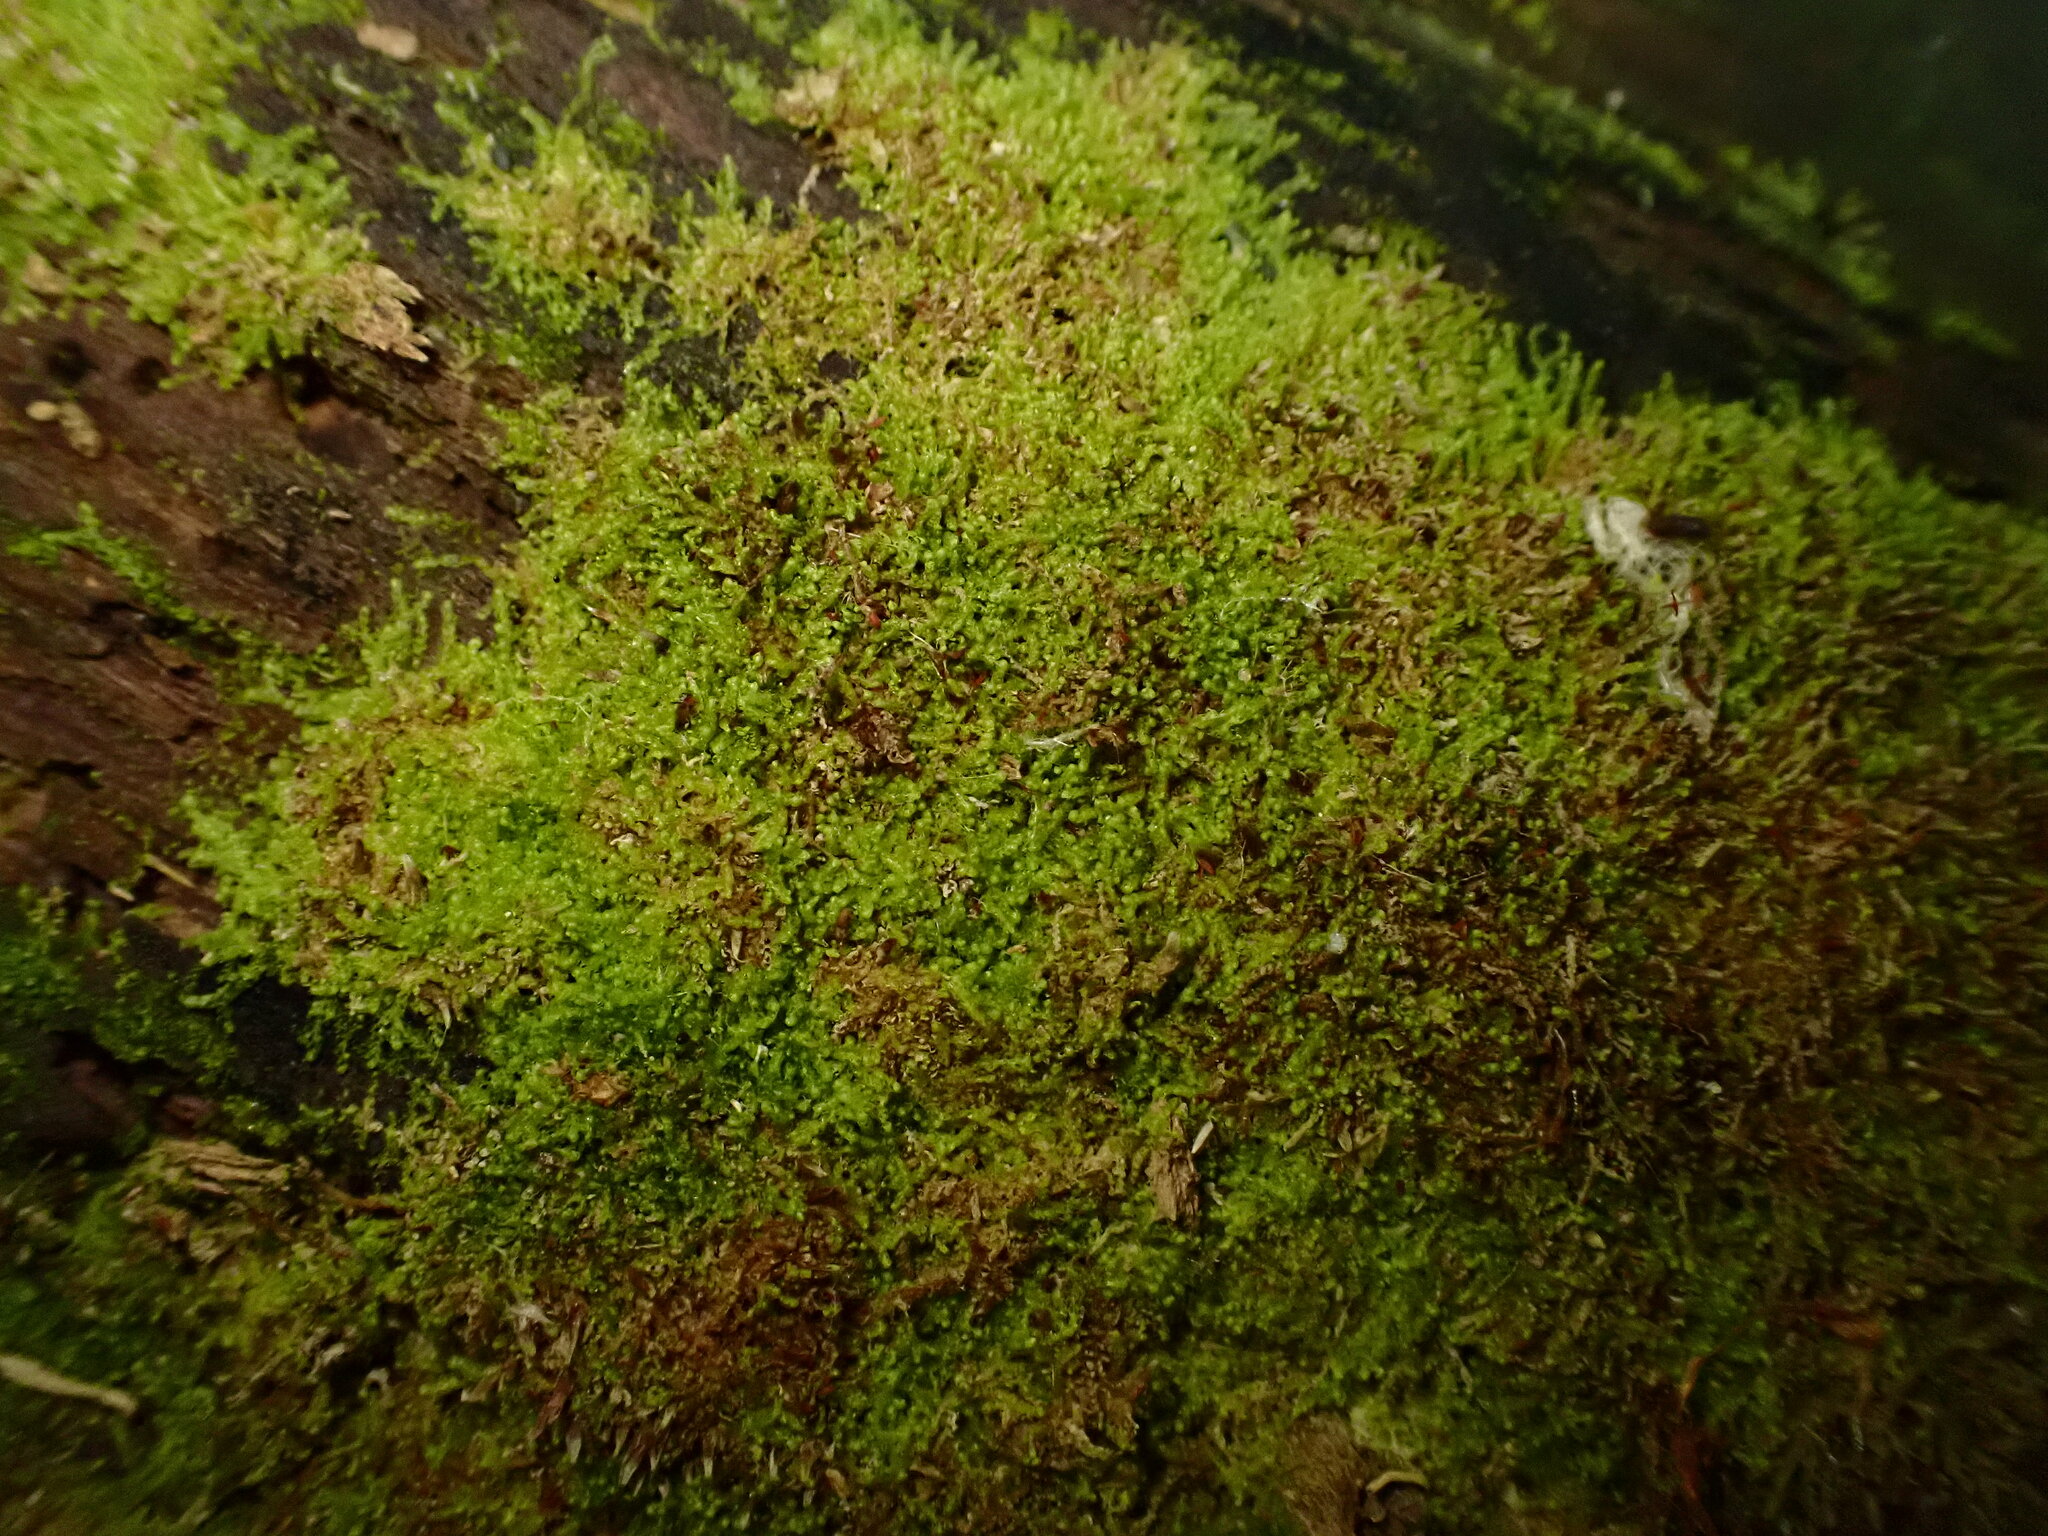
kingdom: Plantae
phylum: Marchantiophyta
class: Jungermanniopsida
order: Jungermanniales
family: Cephaloziaceae
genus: Nowellia
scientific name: Nowellia curvifolia
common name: Wood rustwort
